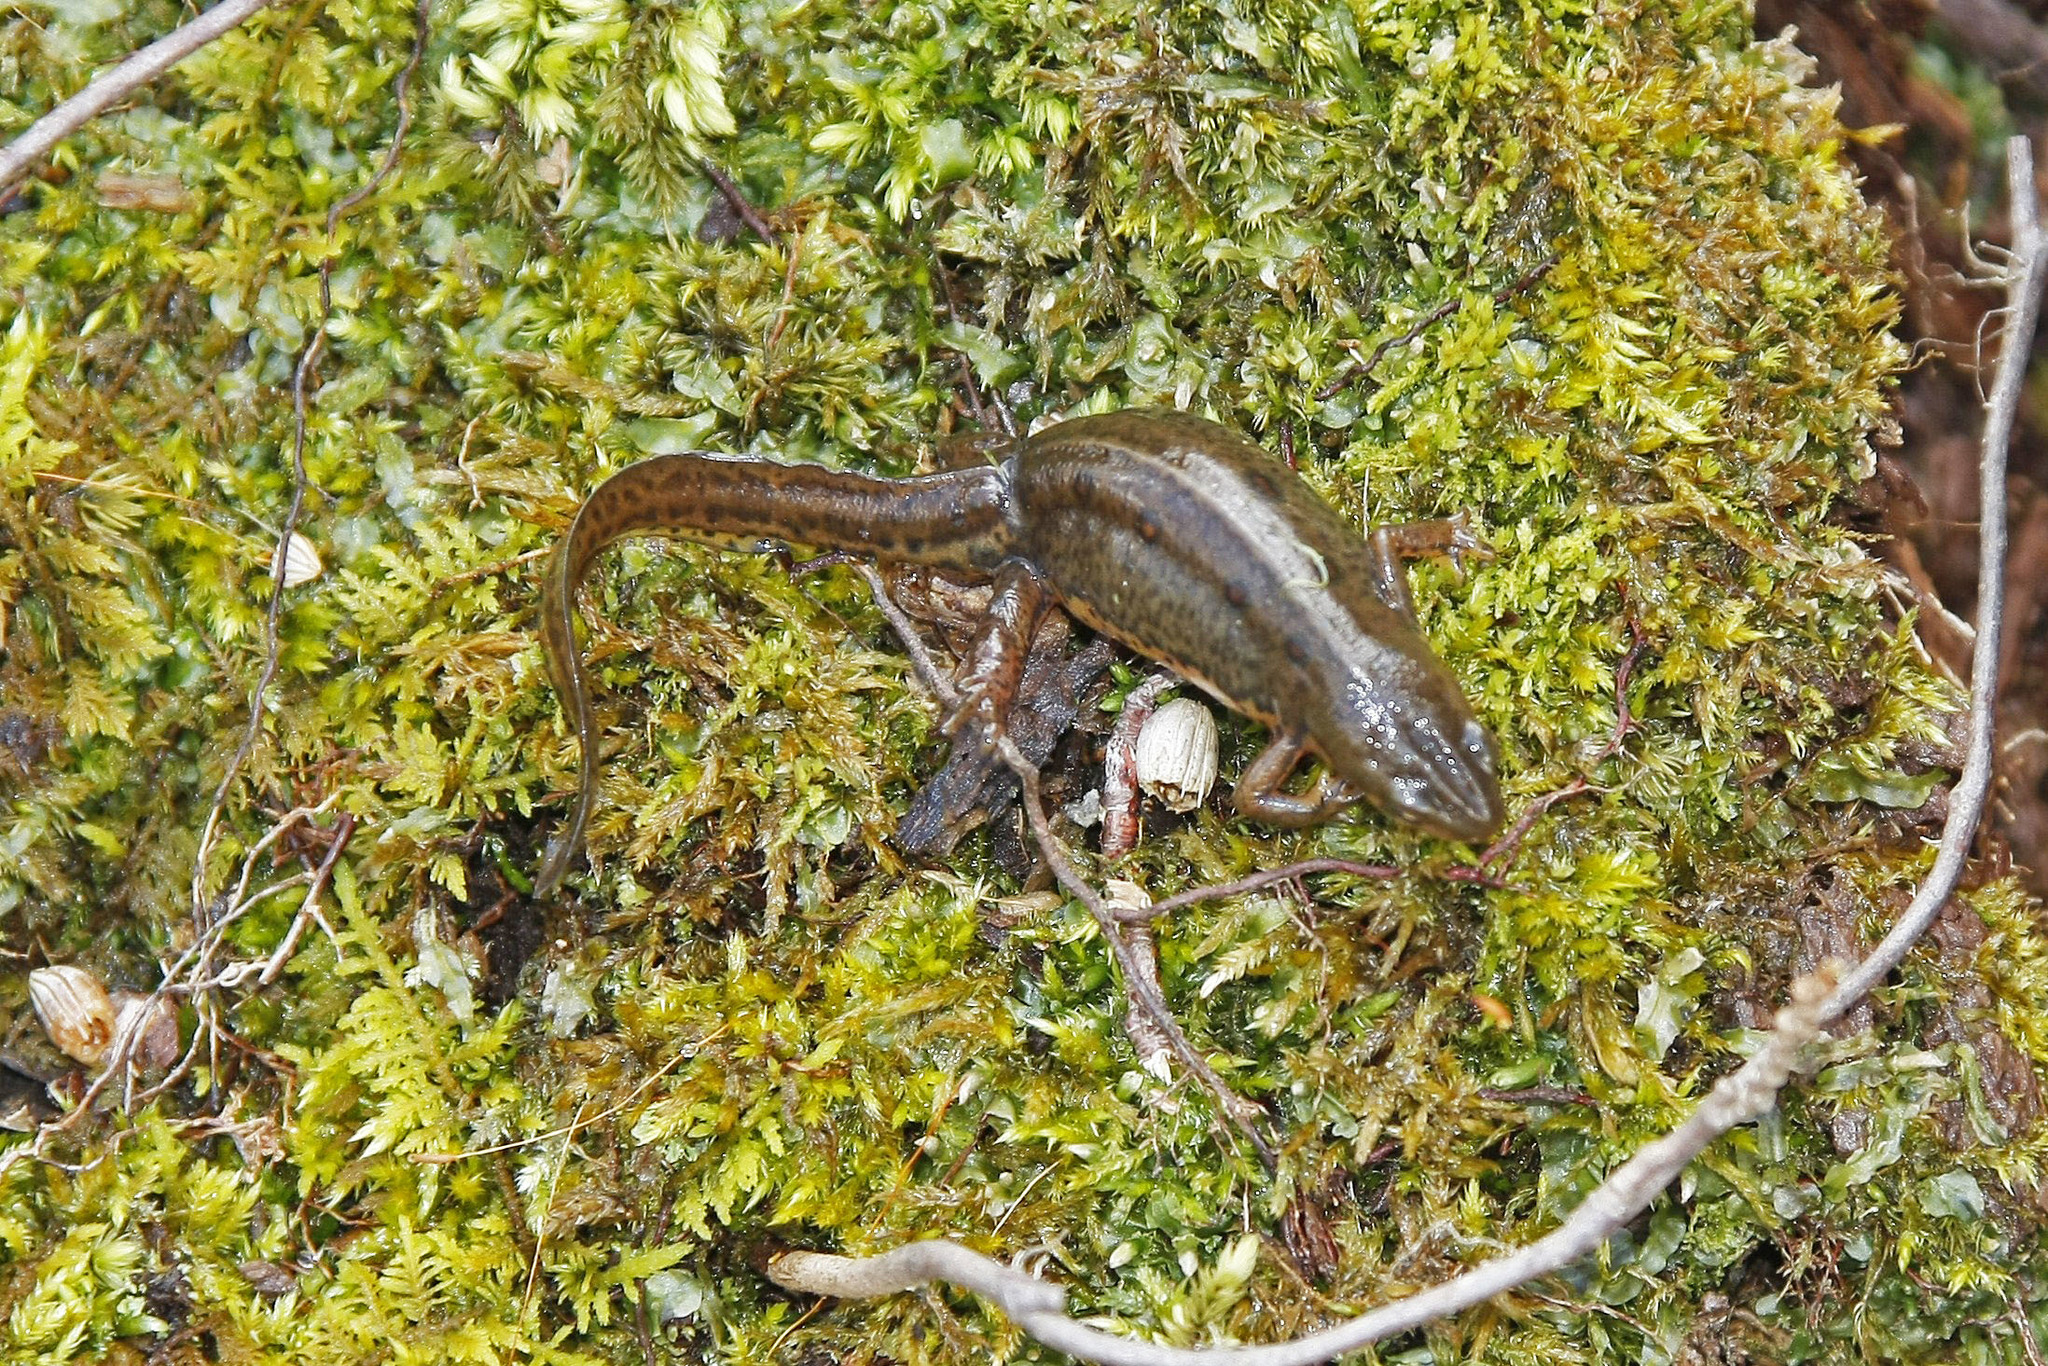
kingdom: Animalia
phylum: Chordata
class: Amphibia
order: Caudata
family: Salamandridae
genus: Notophthalmus
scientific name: Notophthalmus viridescens
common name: Eastern newt
